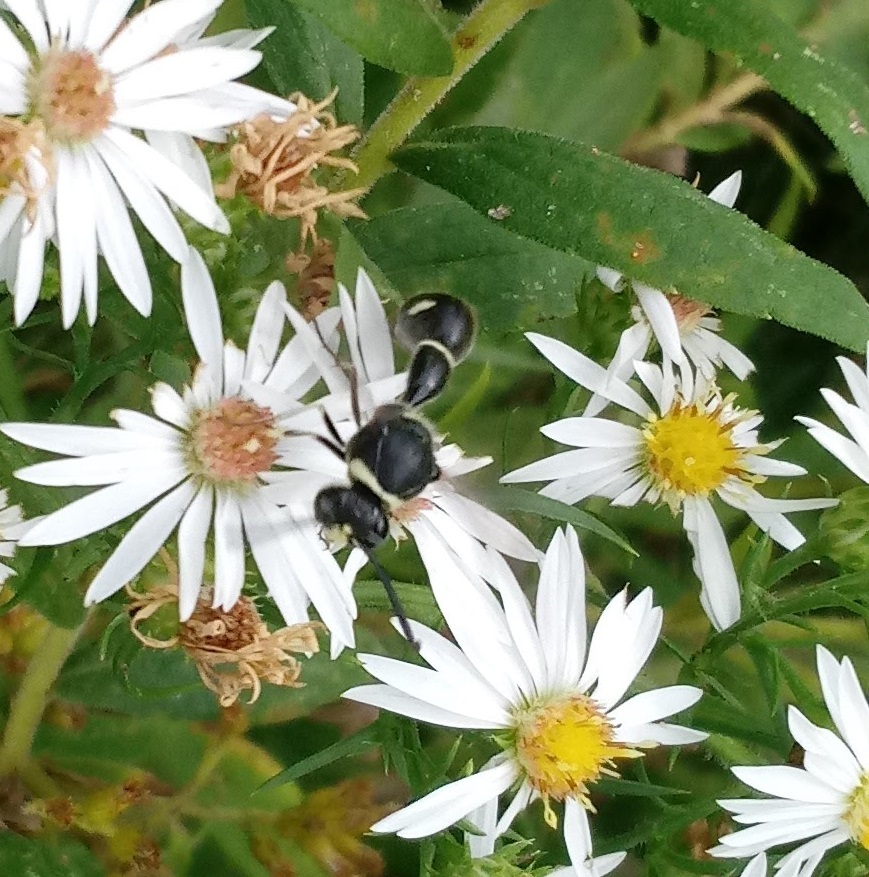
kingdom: Animalia
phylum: Arthropoda
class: Insecta
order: Hymenoptera
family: Vespidae
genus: Eumenes
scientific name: Eumenes fraternus
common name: Fraternal potter wasp
